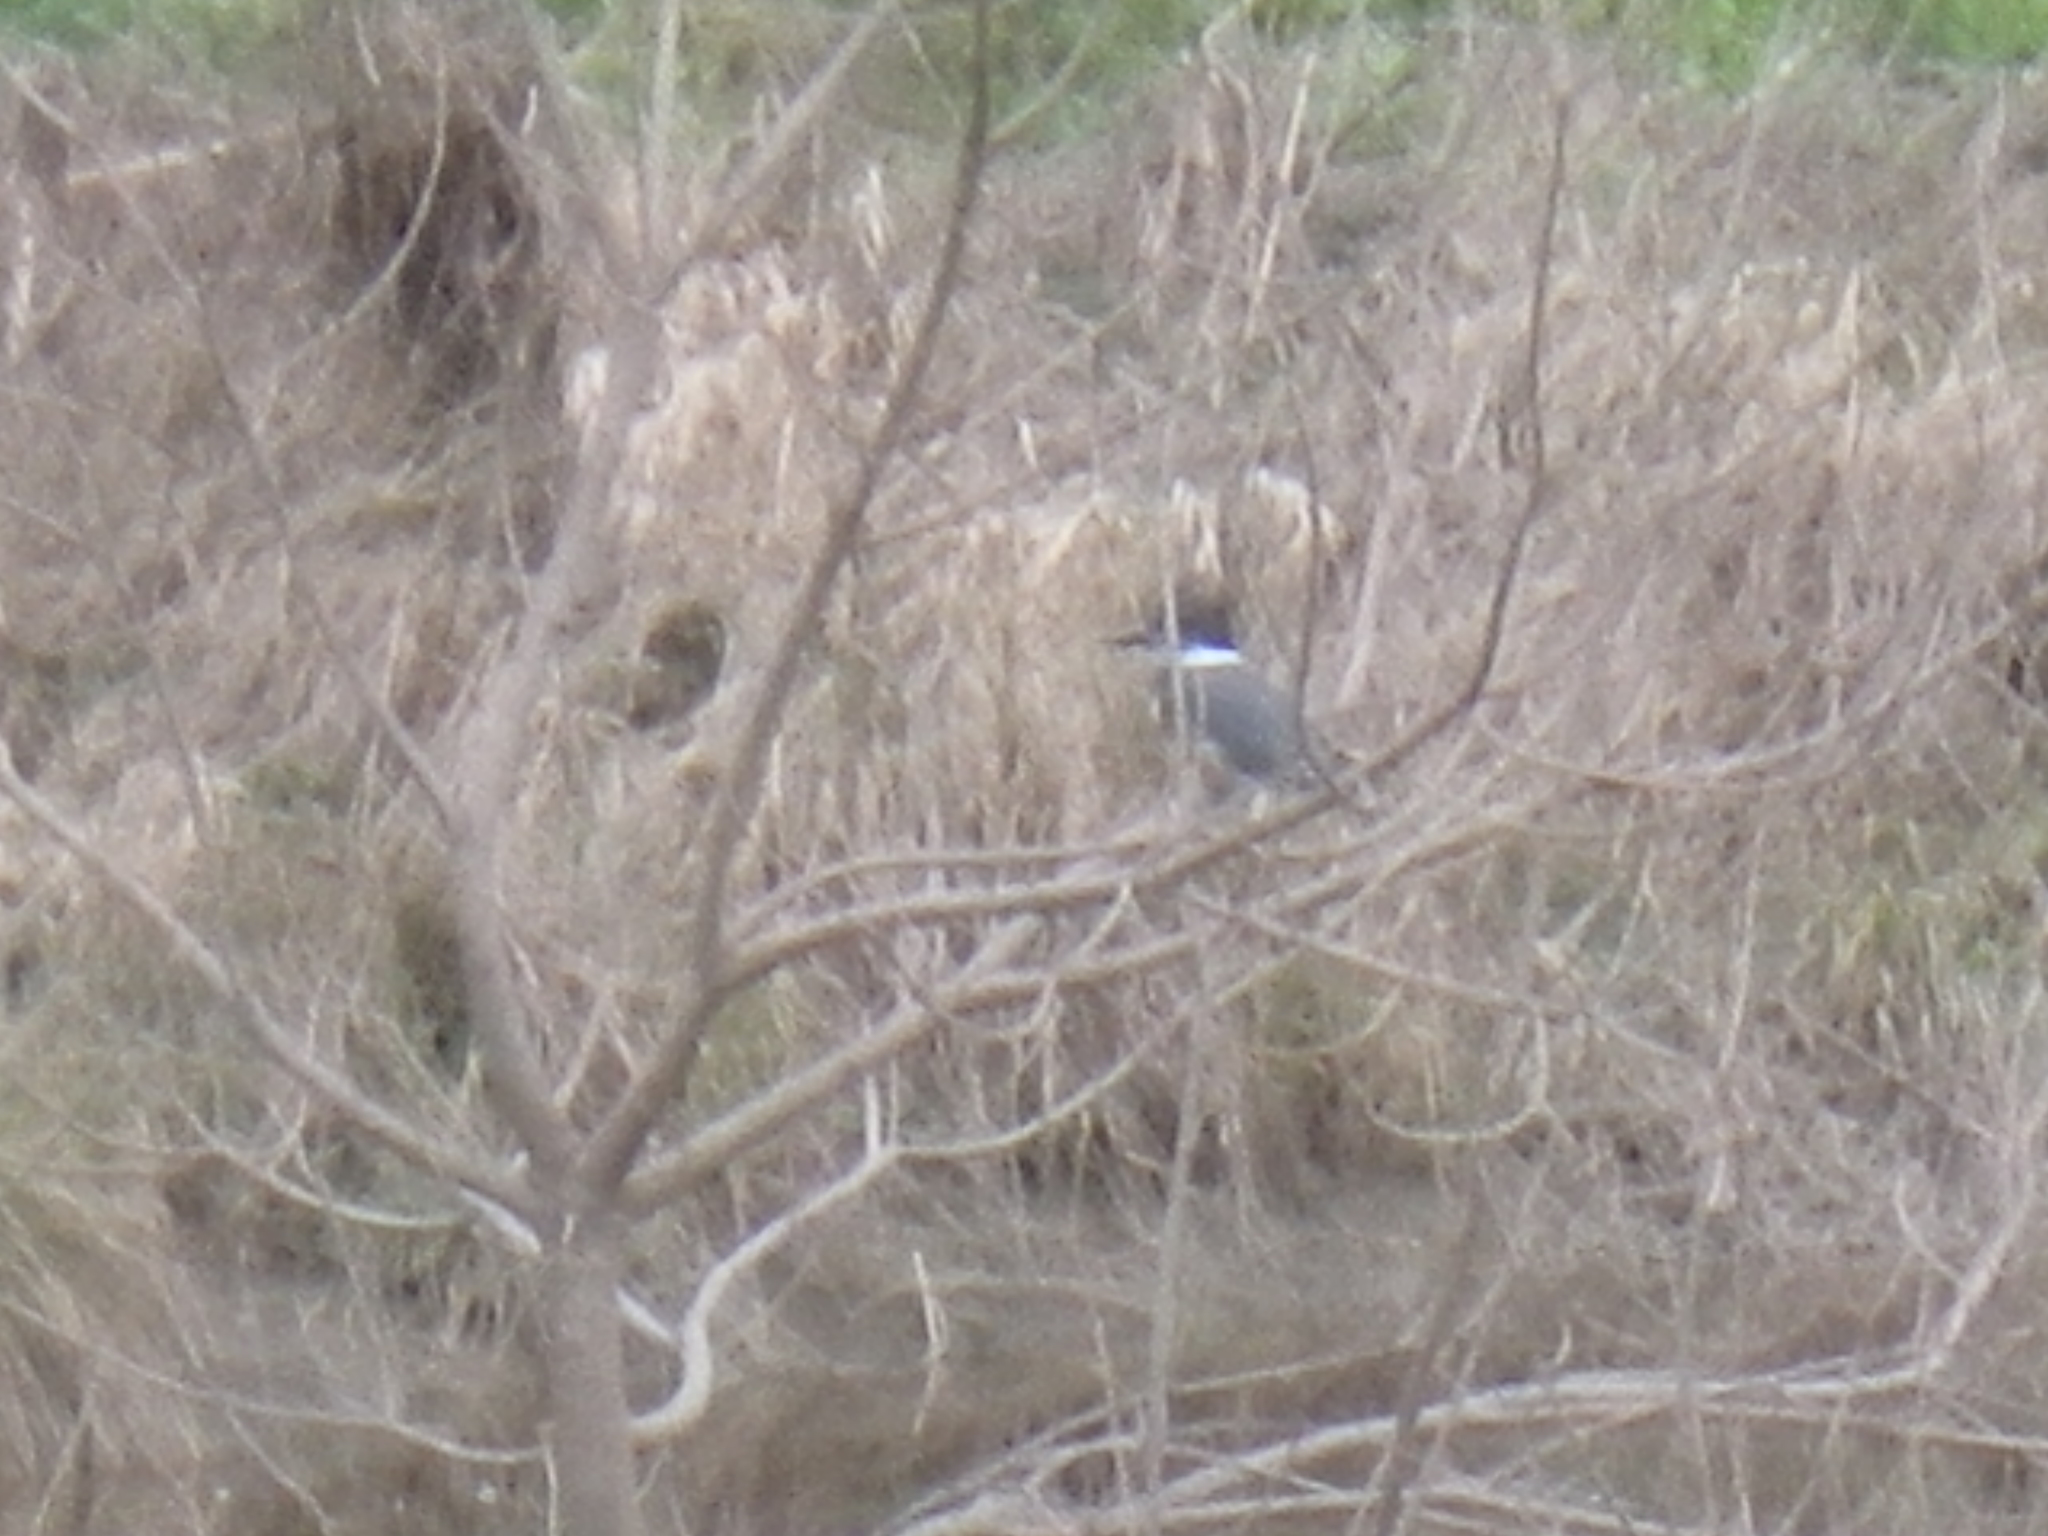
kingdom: Animalia
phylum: Chordata
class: Aves
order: Coraciiformes
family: Alcedinidae
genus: Megaceryle
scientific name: Megaceryle alcyon
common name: Belted kingfisher
